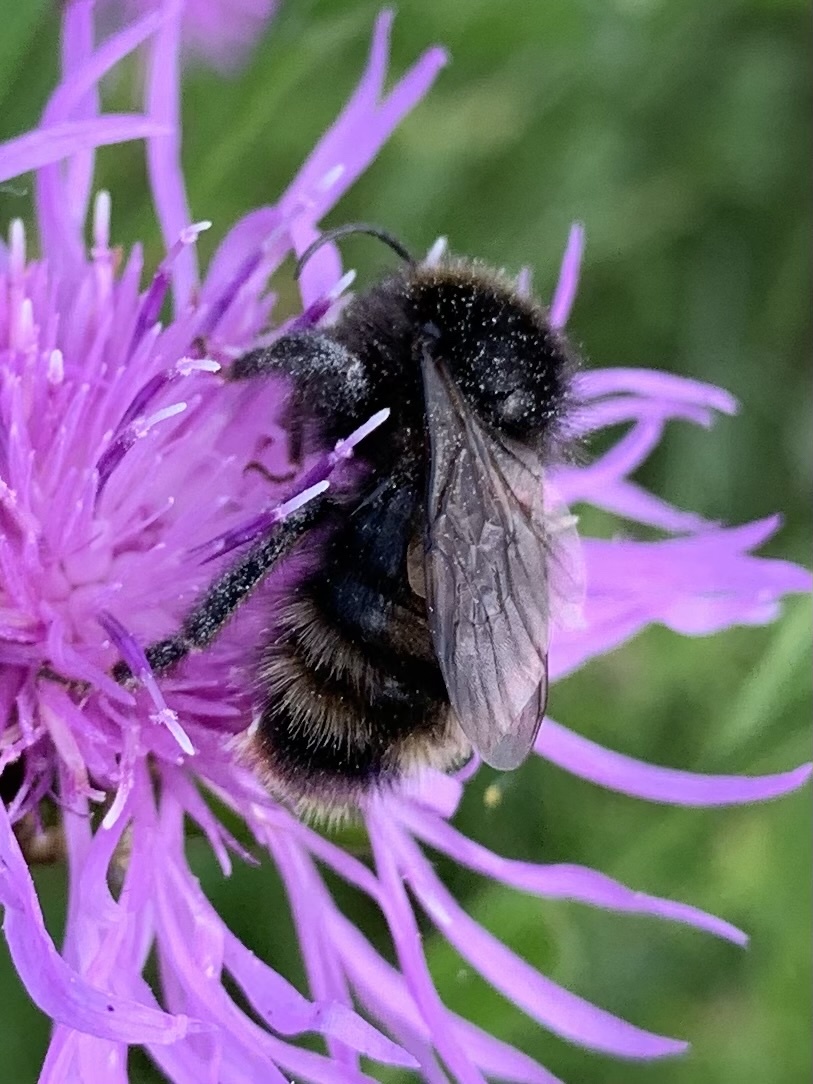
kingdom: Animalia
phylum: Arthropoda
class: Insecta
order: Hymenoptera
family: Apidae
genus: Bombus
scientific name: Bombus rupestris
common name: Hill cuckoo-bee
